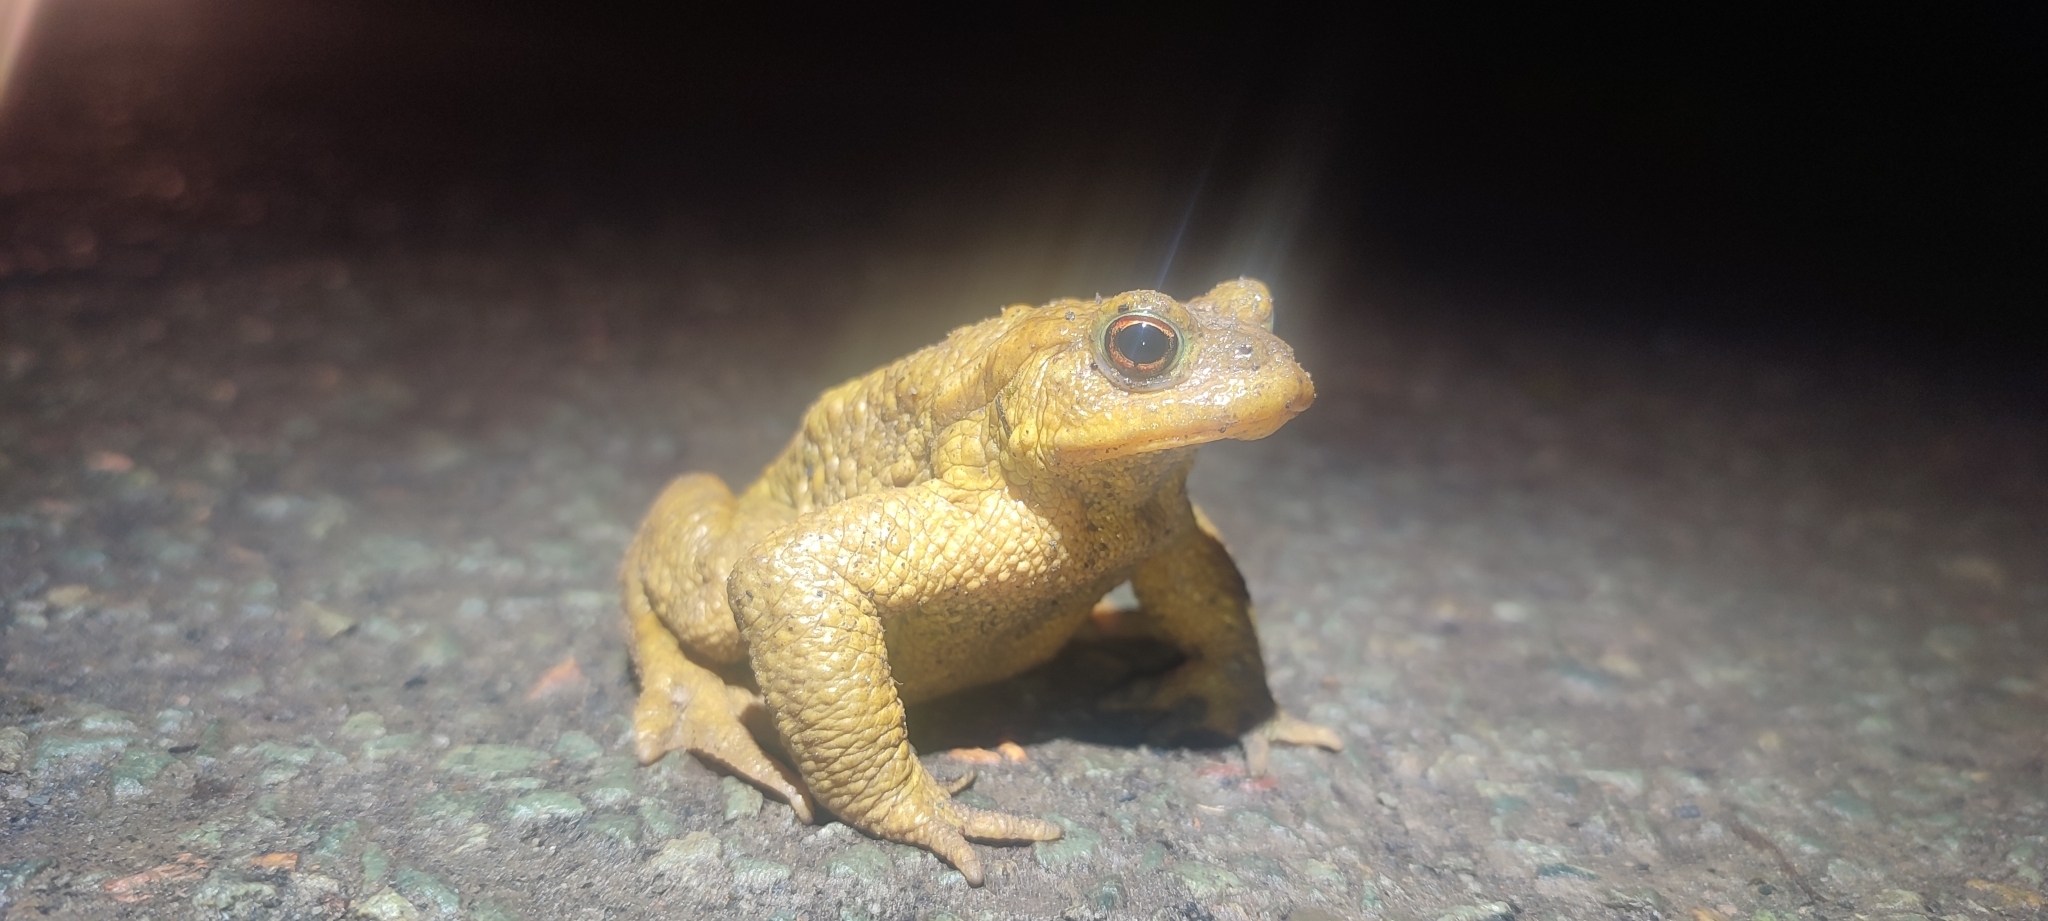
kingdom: Animalia
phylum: Chordata
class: Amphibia
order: Anura
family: Bufonidae
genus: Bufo
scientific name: Bufo spinosus
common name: Western common toad
